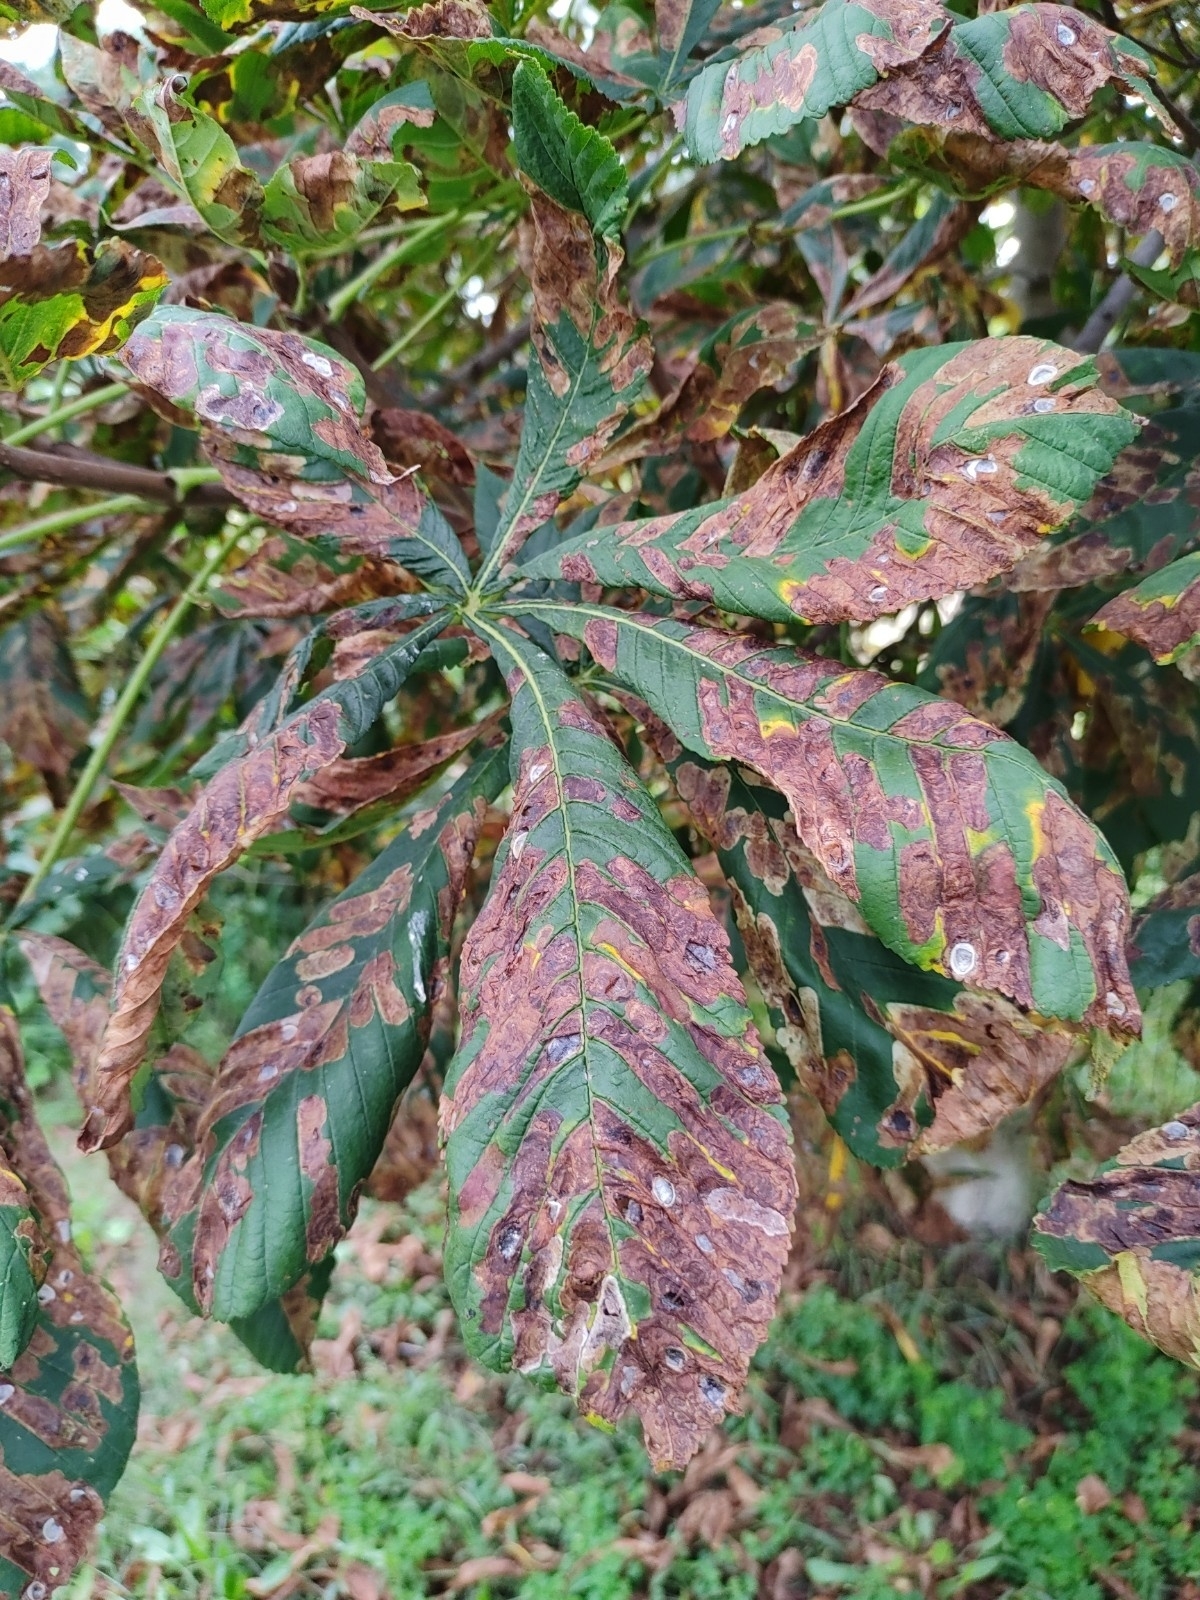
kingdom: Animalia
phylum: Arthropoda
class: Insecta
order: Lepidoptera
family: Gracillariidae
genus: Cameraria
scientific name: Cameraria ohridella
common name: Horse-chestnut leaf-miner
